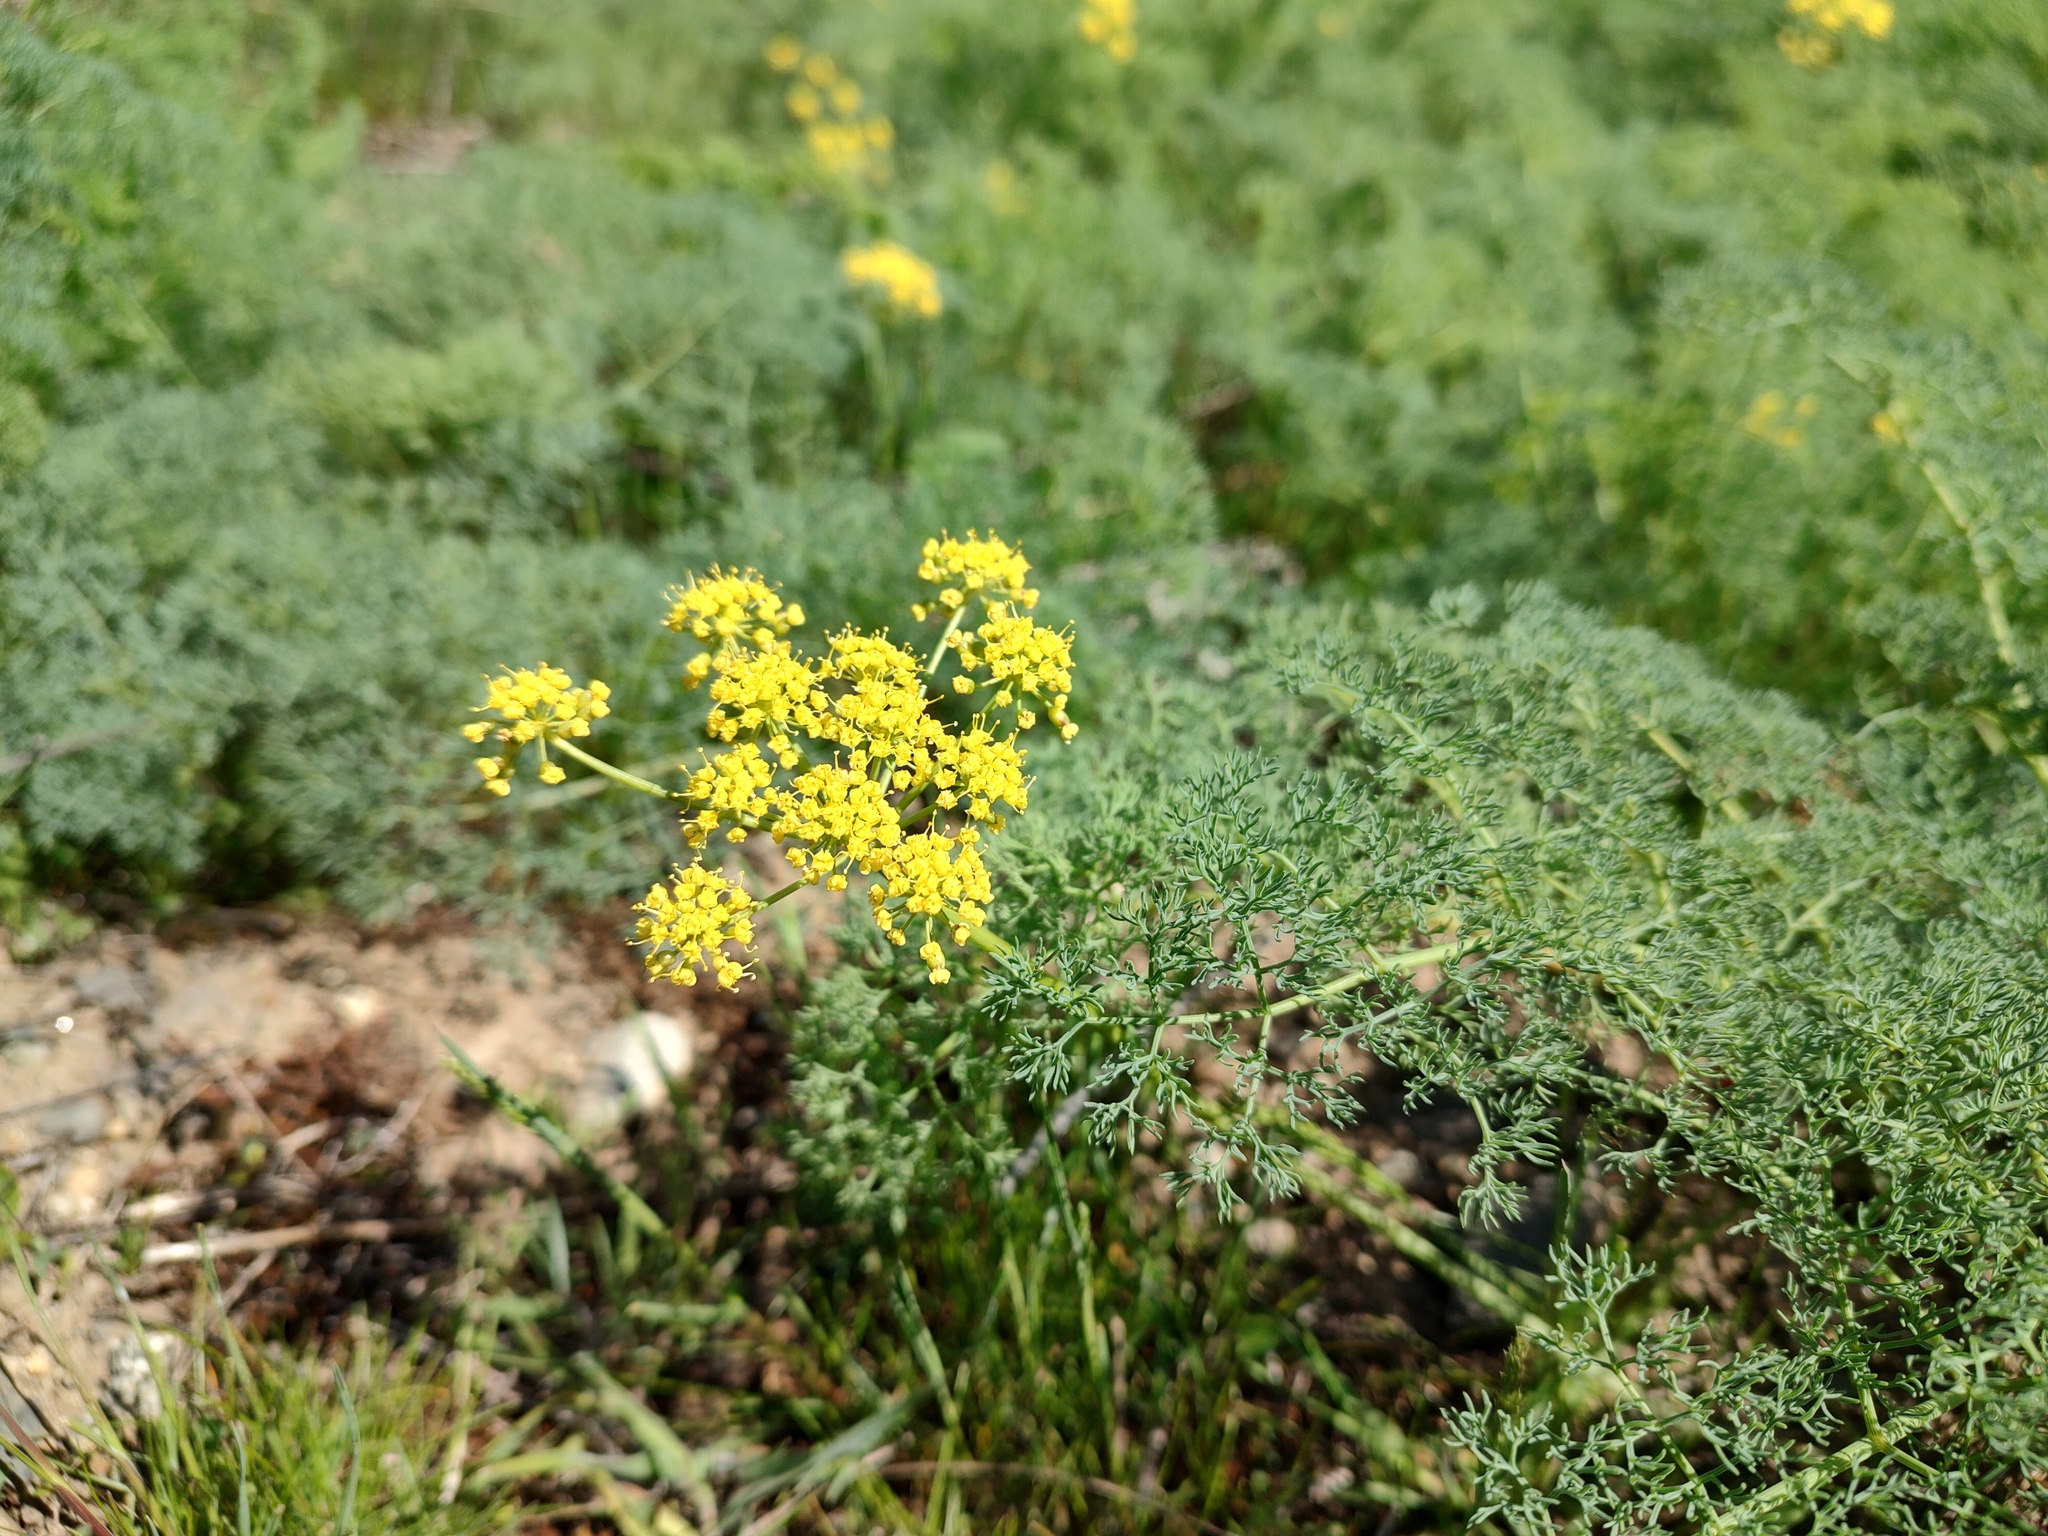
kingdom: Plantae
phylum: Tracheophyta
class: Magnoliopsida
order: Apiales
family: Apiaceae
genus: Lomatium
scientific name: Lomatium papilioniferum
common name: Butterfly lomatium
